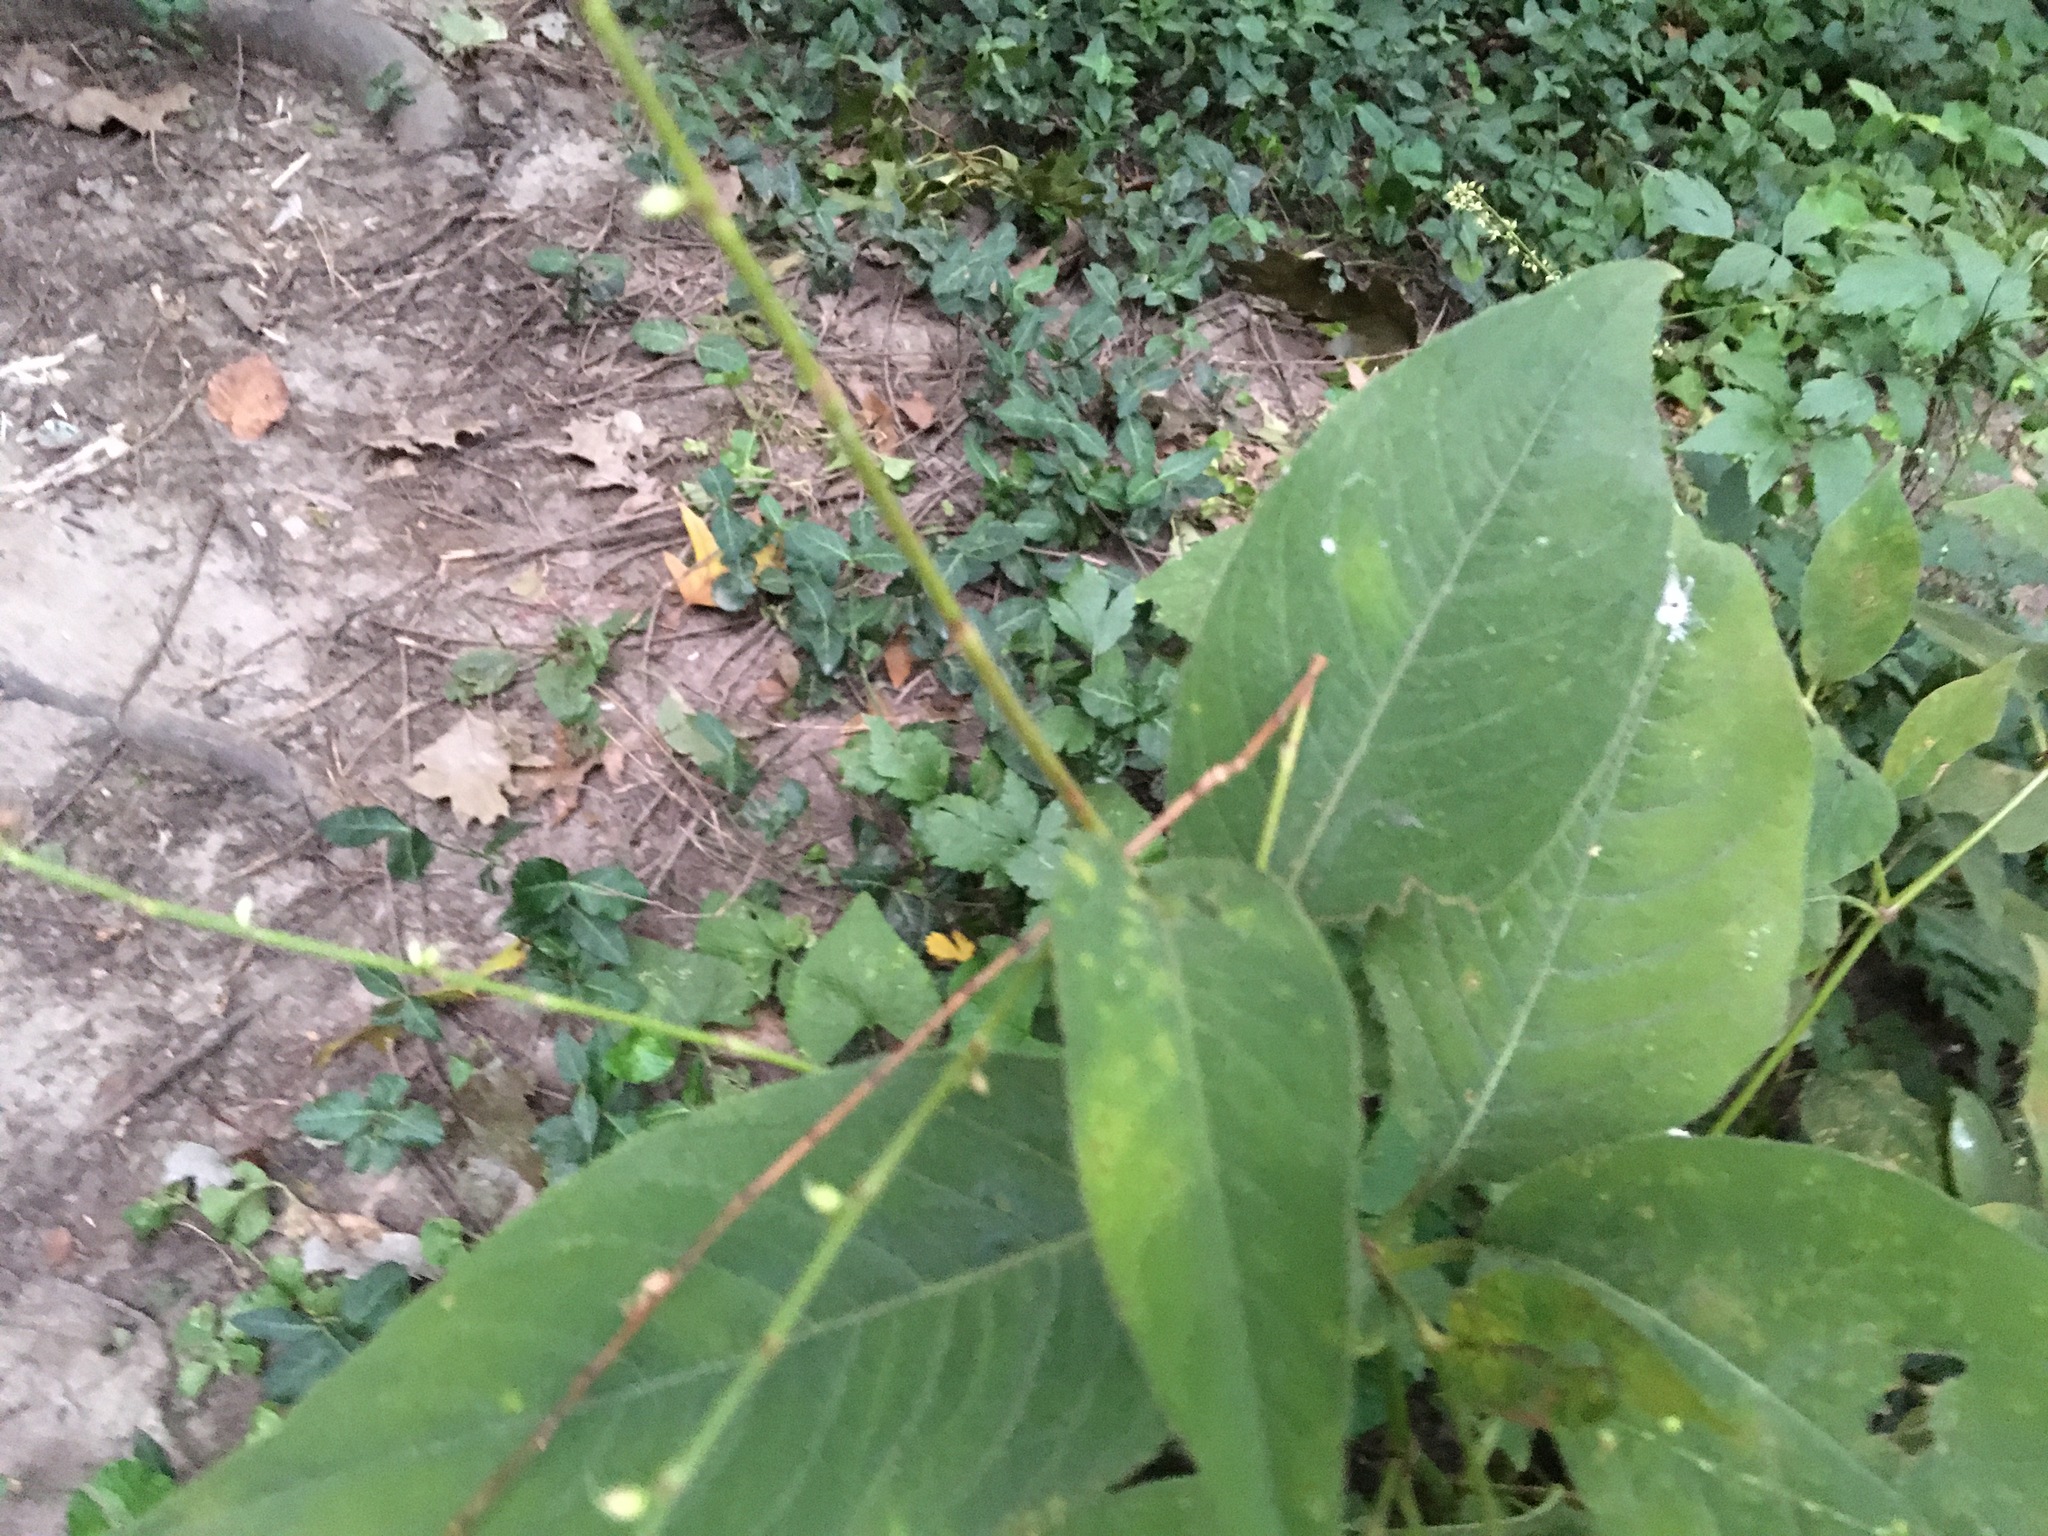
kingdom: Plantae
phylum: Tracheophyta
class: Magnoliopsida
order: Caryophyllales
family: Polygonaceae
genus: Persicaria
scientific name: Persicaria virginiana
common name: Jumpseed
